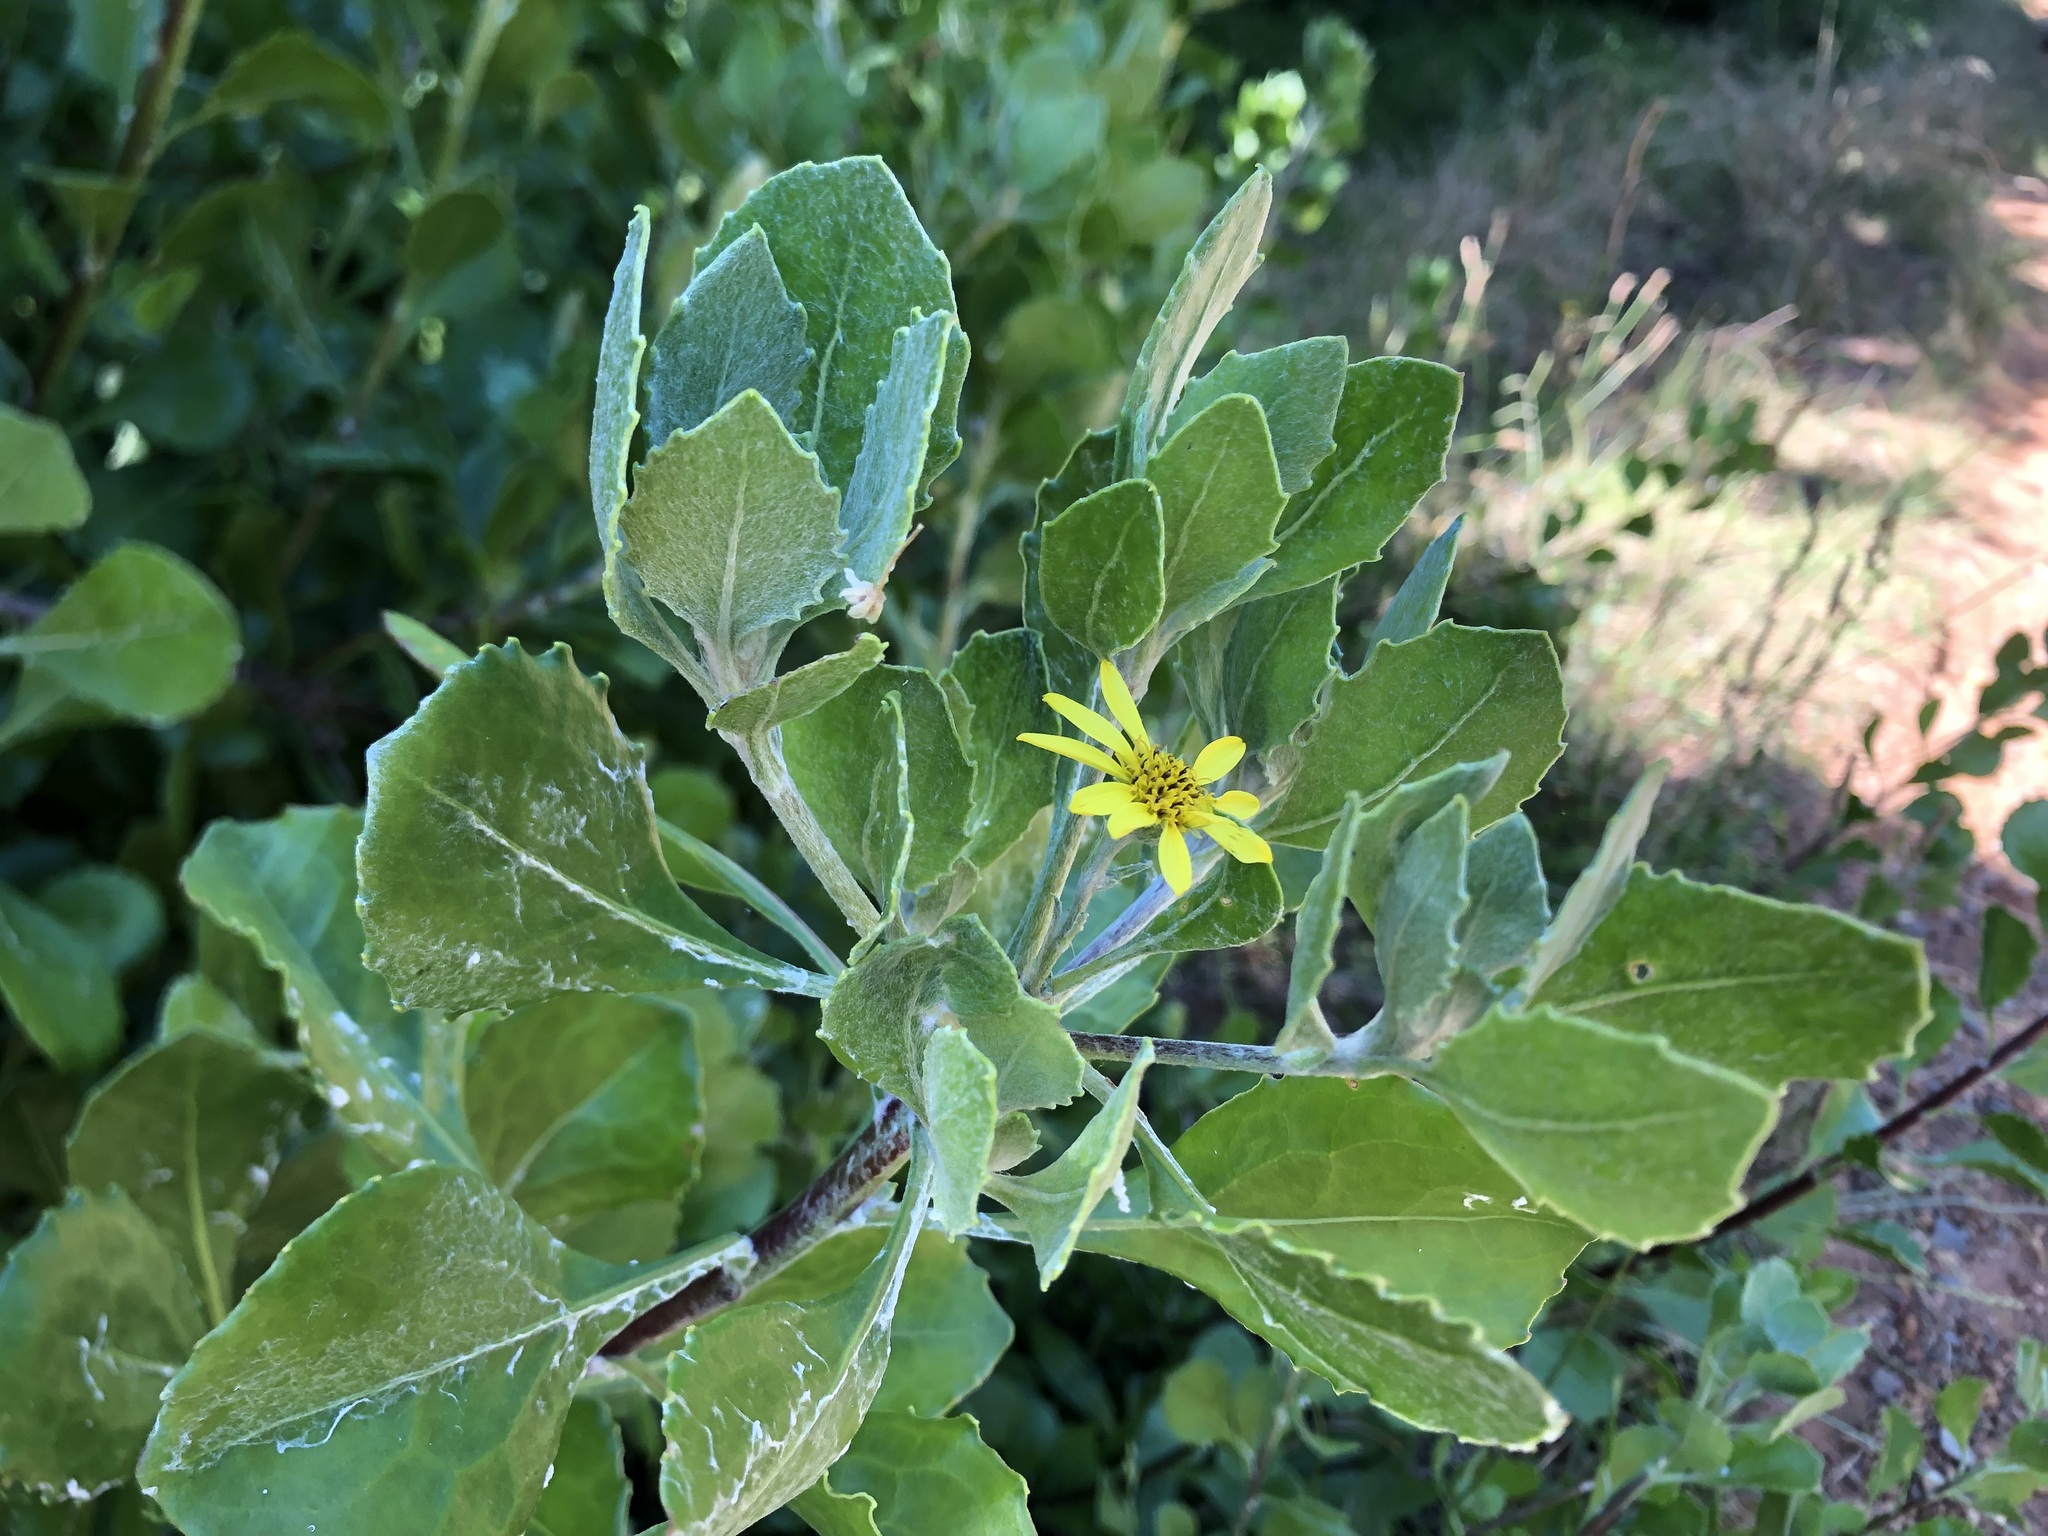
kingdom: Plantae
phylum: Tracheophyta
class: Magnoliopsida
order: Asterales
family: Asteraceae
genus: Osteospermum
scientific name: Osteospermum moniliferum
